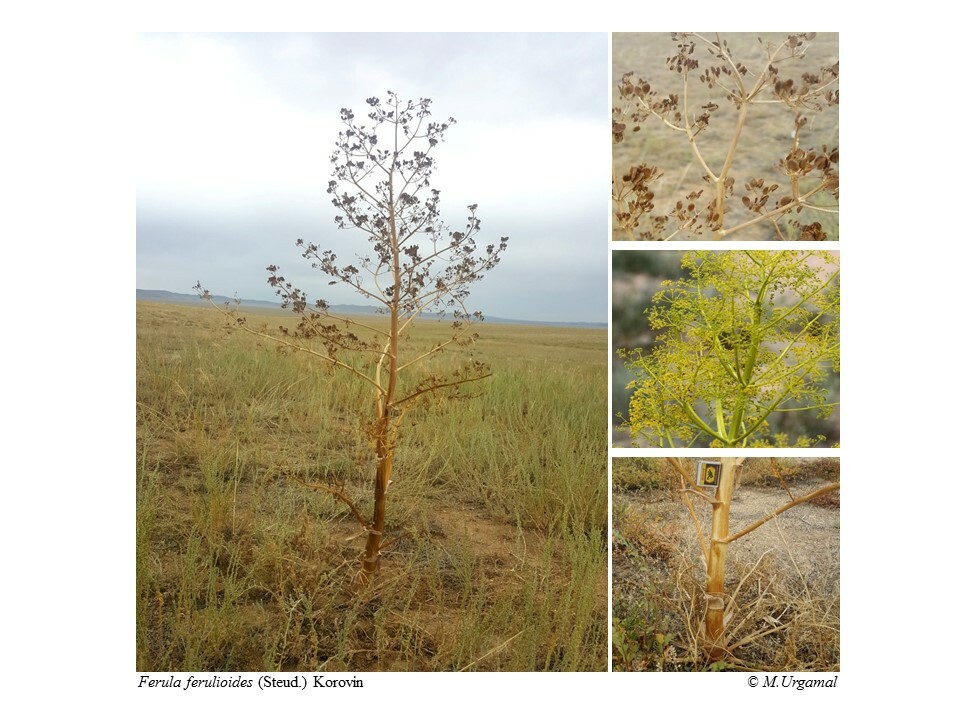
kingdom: Plantae
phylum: Tracheophyta
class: Magnoliopsida
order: Apiales
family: Apiaceae
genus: Ferula
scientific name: Ferula resinosa
